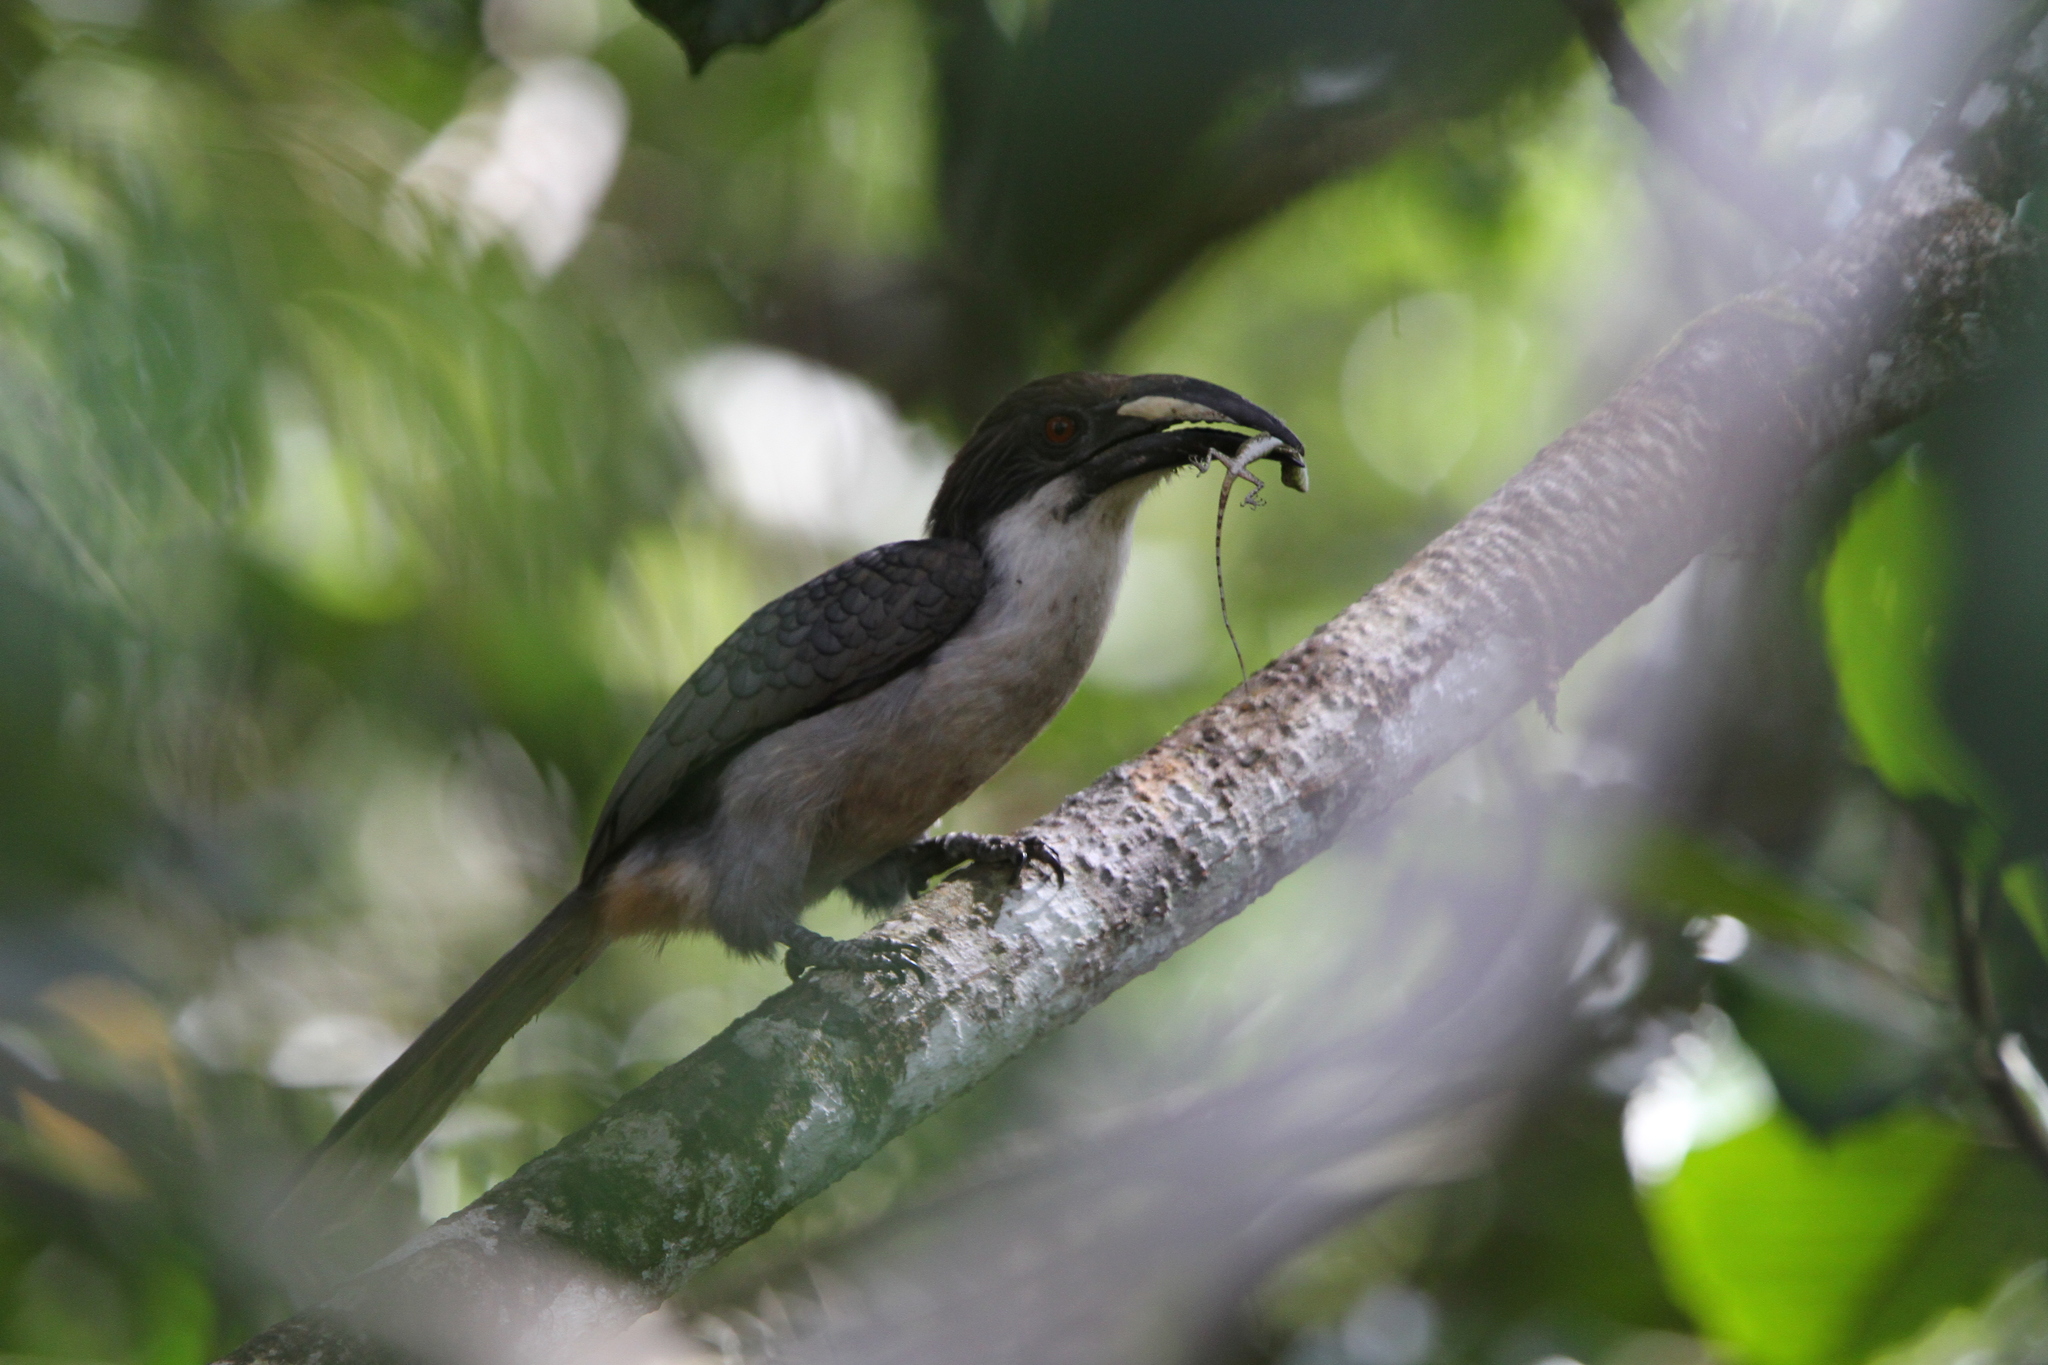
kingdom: Animalia
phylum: Chordata
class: Aves
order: Bucerotiformes
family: Bucerotidae
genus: Ocyceros
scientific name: Ocyceros gingalensis
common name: Sri lanka grey hornbill
